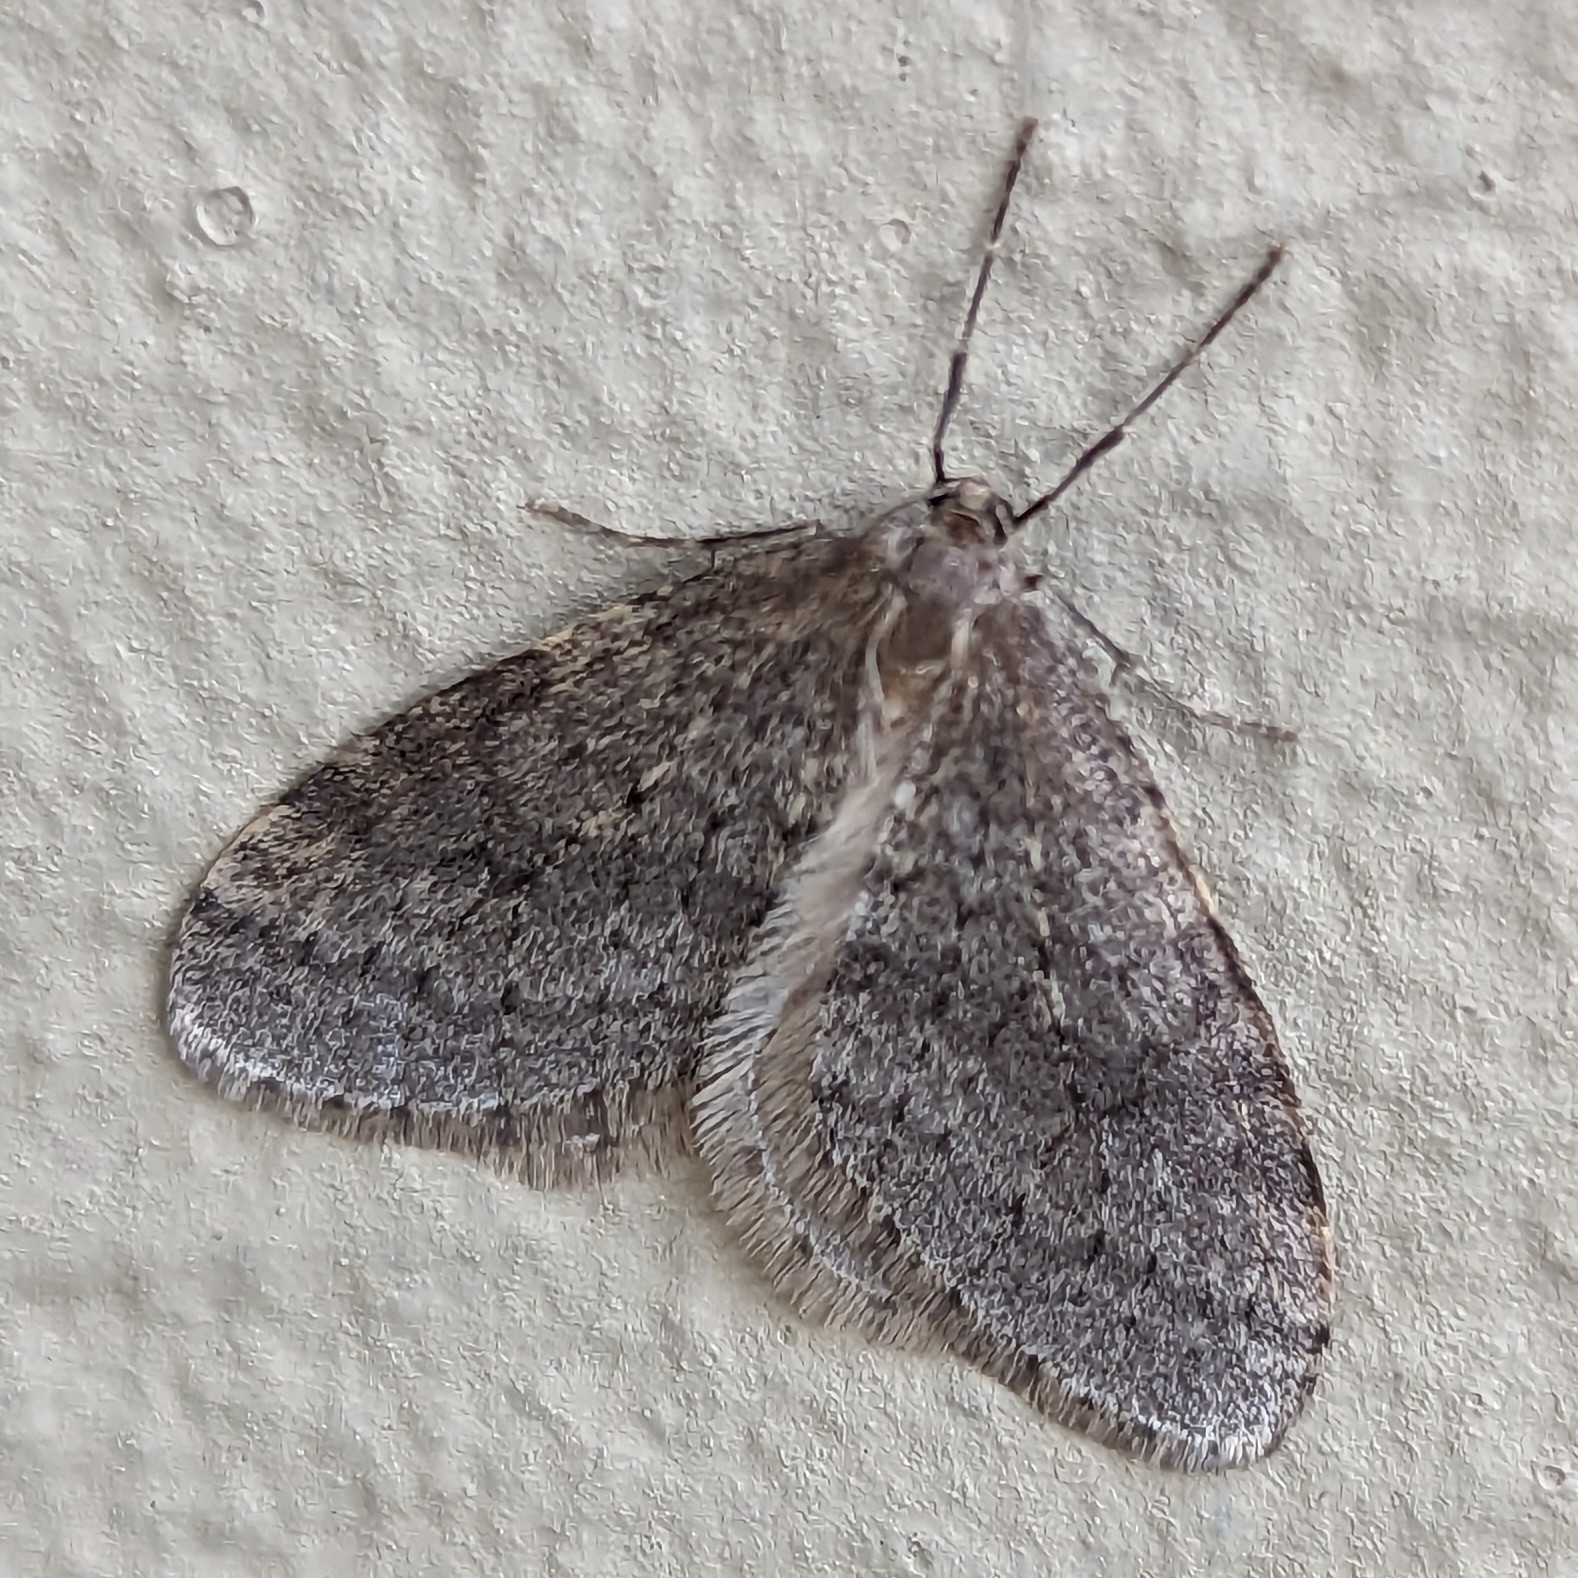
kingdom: Animalia
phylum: Arthropoda
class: Insecta
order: Lepidoptera
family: Geometridae
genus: Operophtera
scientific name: Operophtera bruceata
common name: Bruce spanworm
